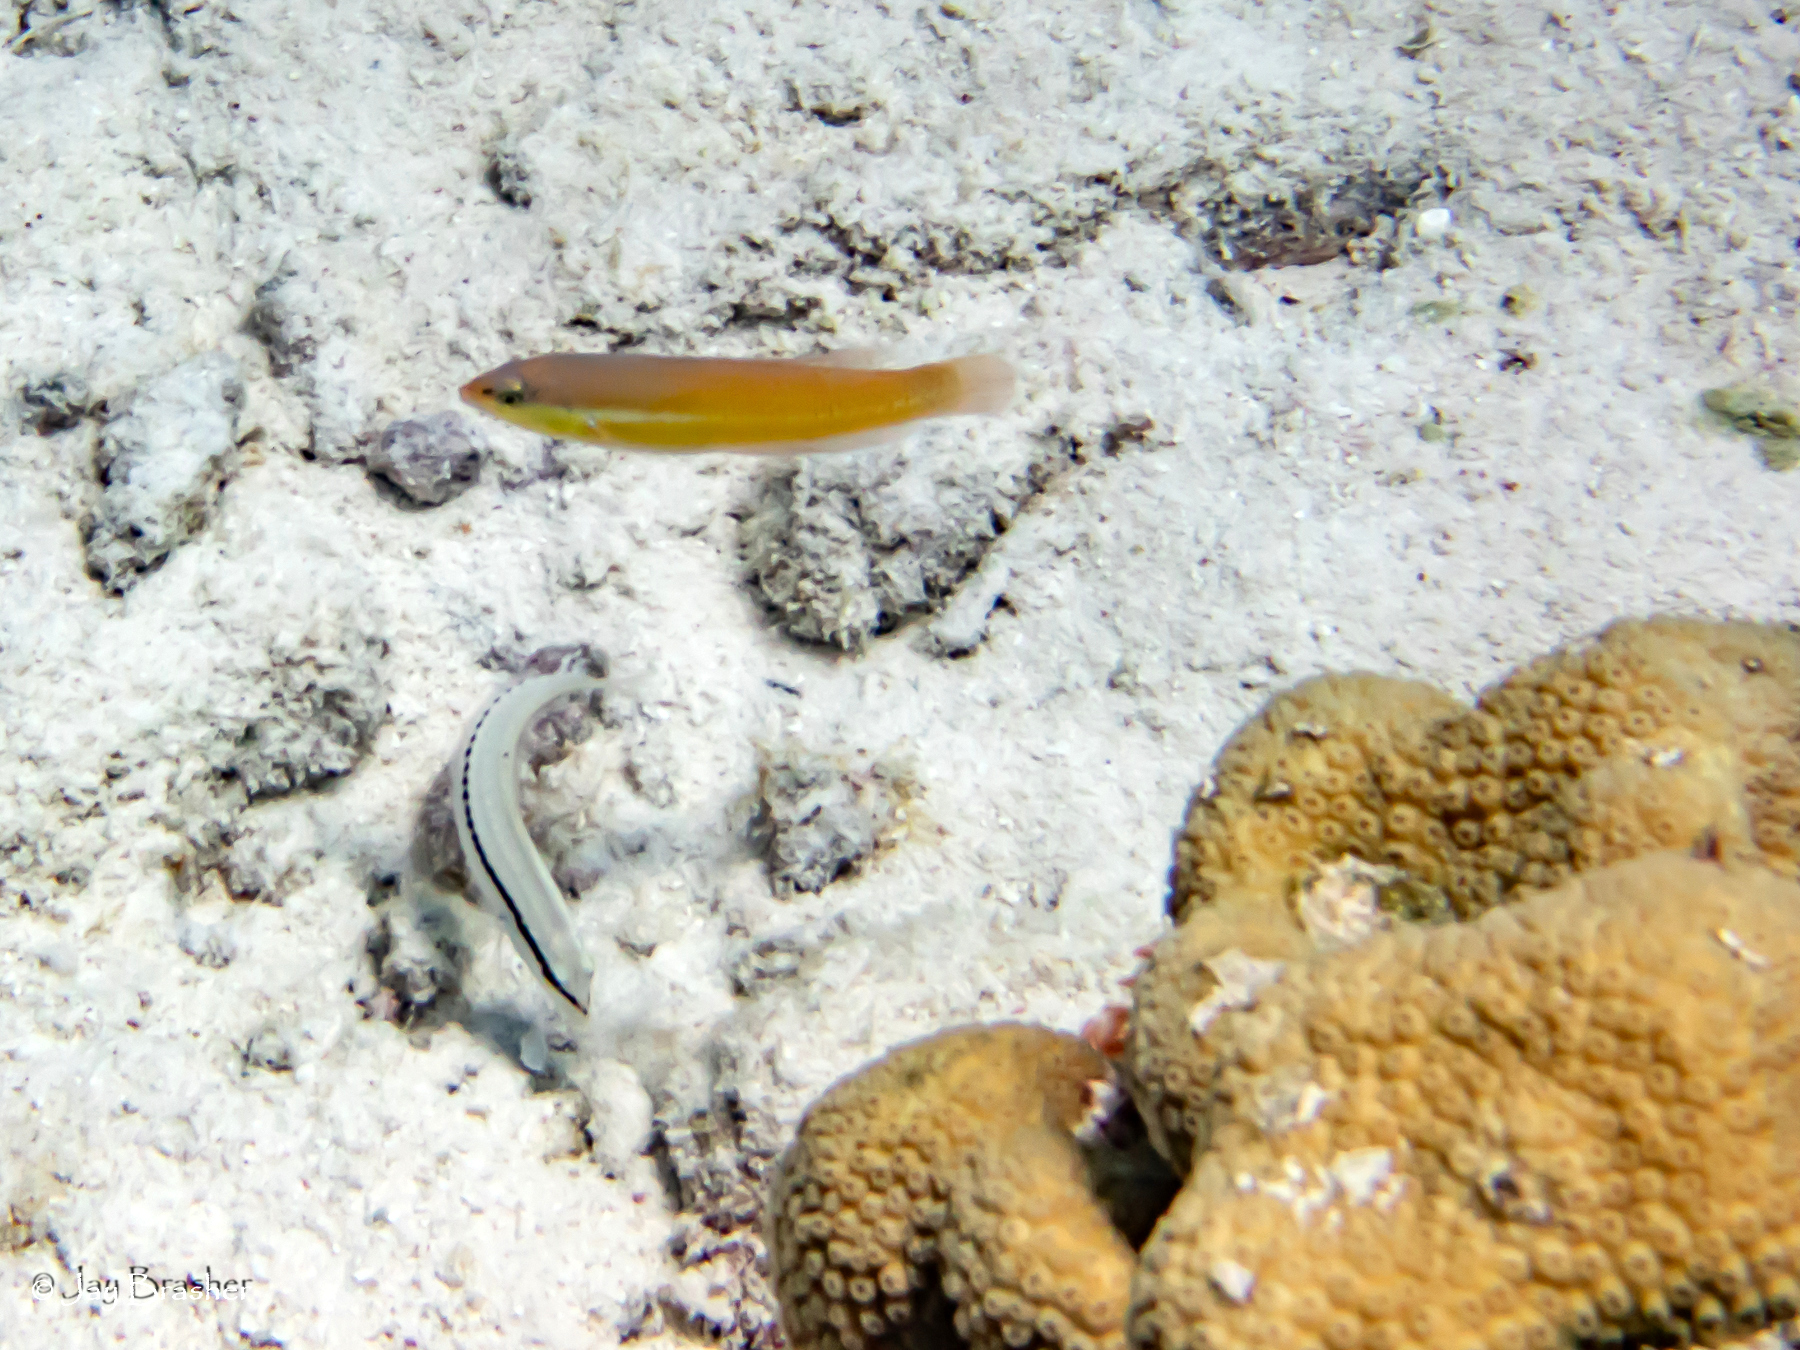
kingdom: Animalia
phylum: Chordata
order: Perciformes
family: Labridae
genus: Halichoeres
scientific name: Halichoeres garnoti
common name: Yellowhead wrasse
